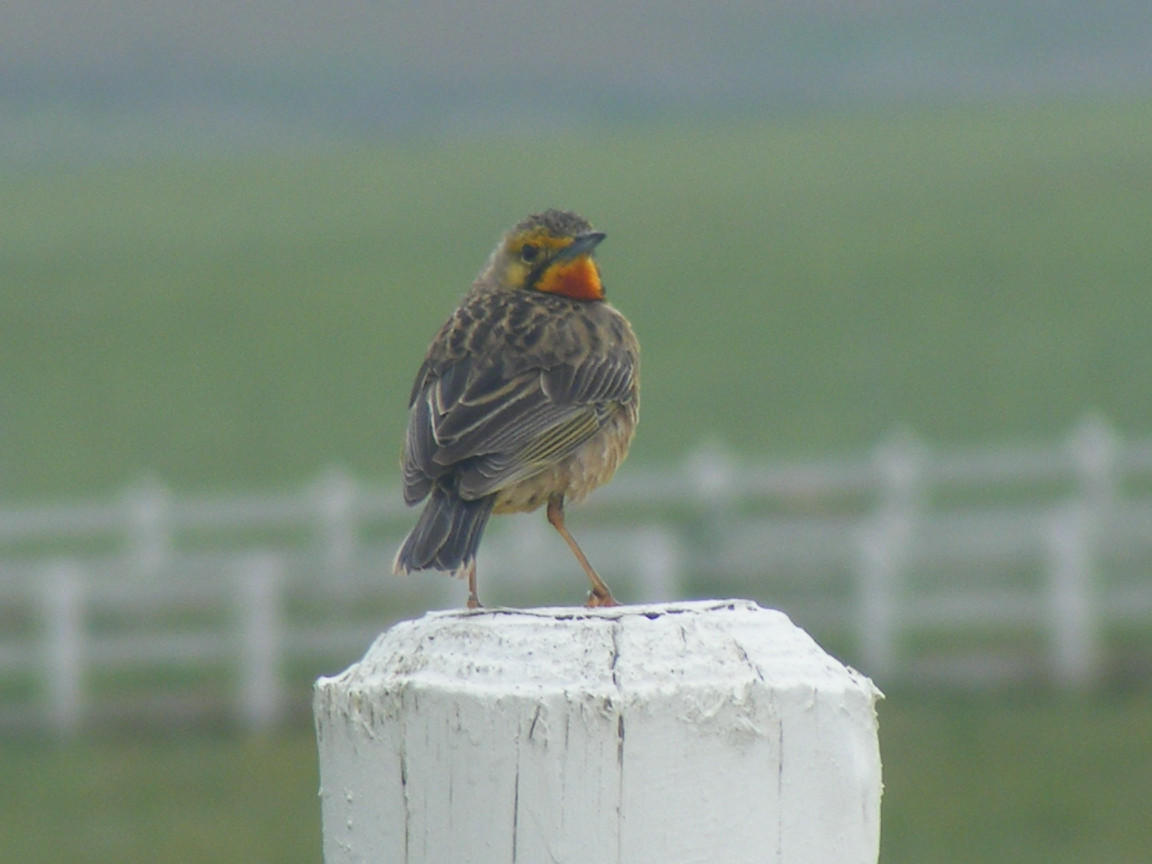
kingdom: Animalia
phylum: Chordata
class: Aves
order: Passeriformes
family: Motacillidae
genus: Macronyx
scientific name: Macronyx capensis
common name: Cape longclaw
